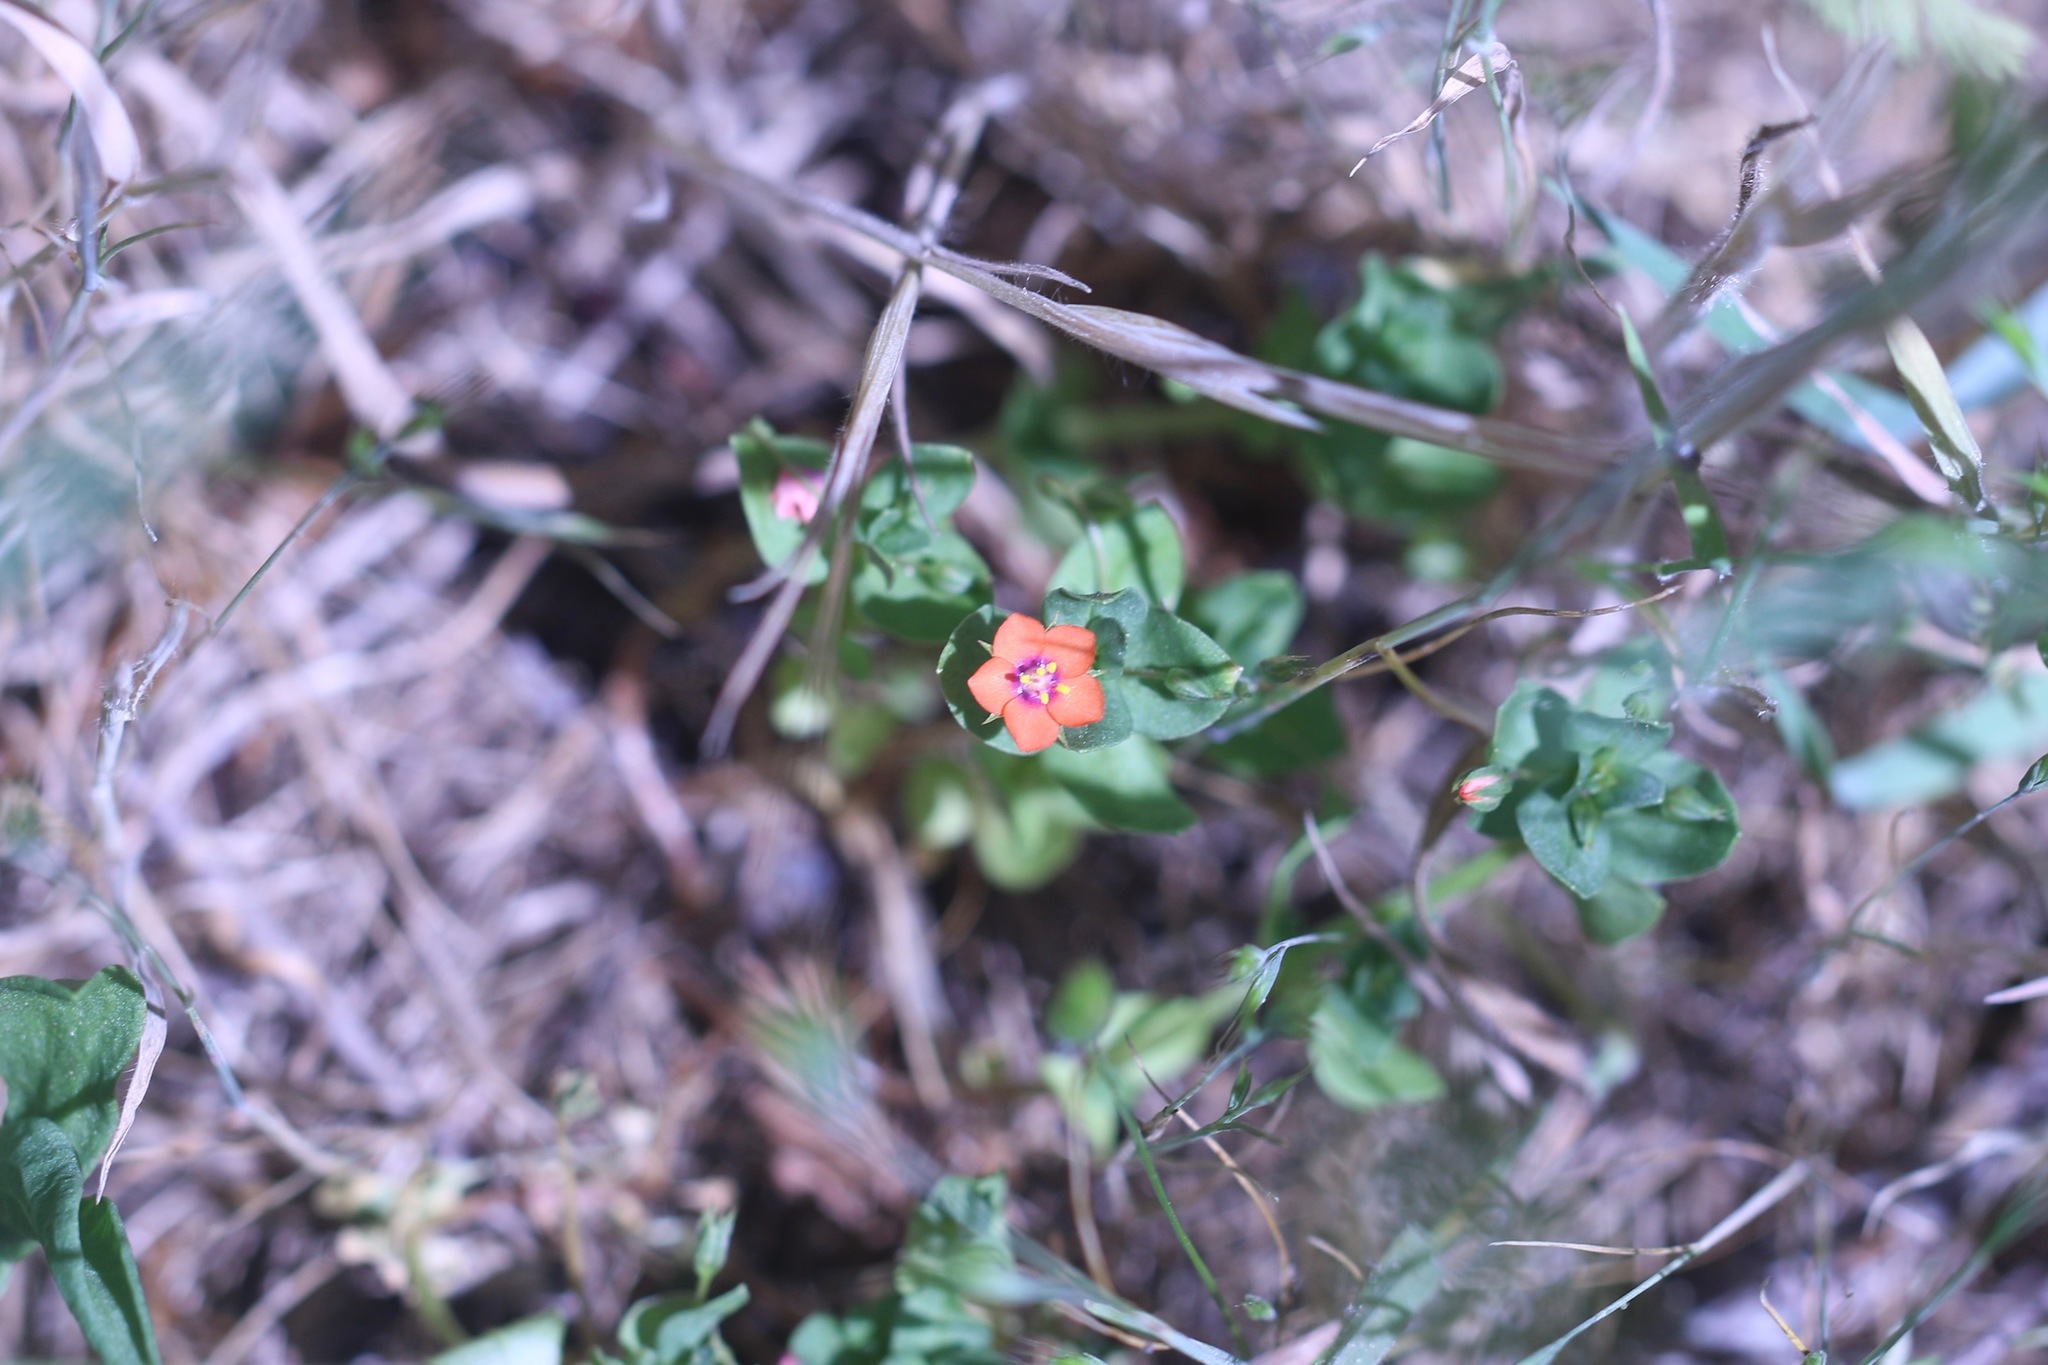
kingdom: Plantae
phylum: Tracheophyta
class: Magnoliopsida
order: Ericales
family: Primulaceae
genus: Lysimachia
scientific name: Lysimachia arvensis
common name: Scarlet pimpernel
